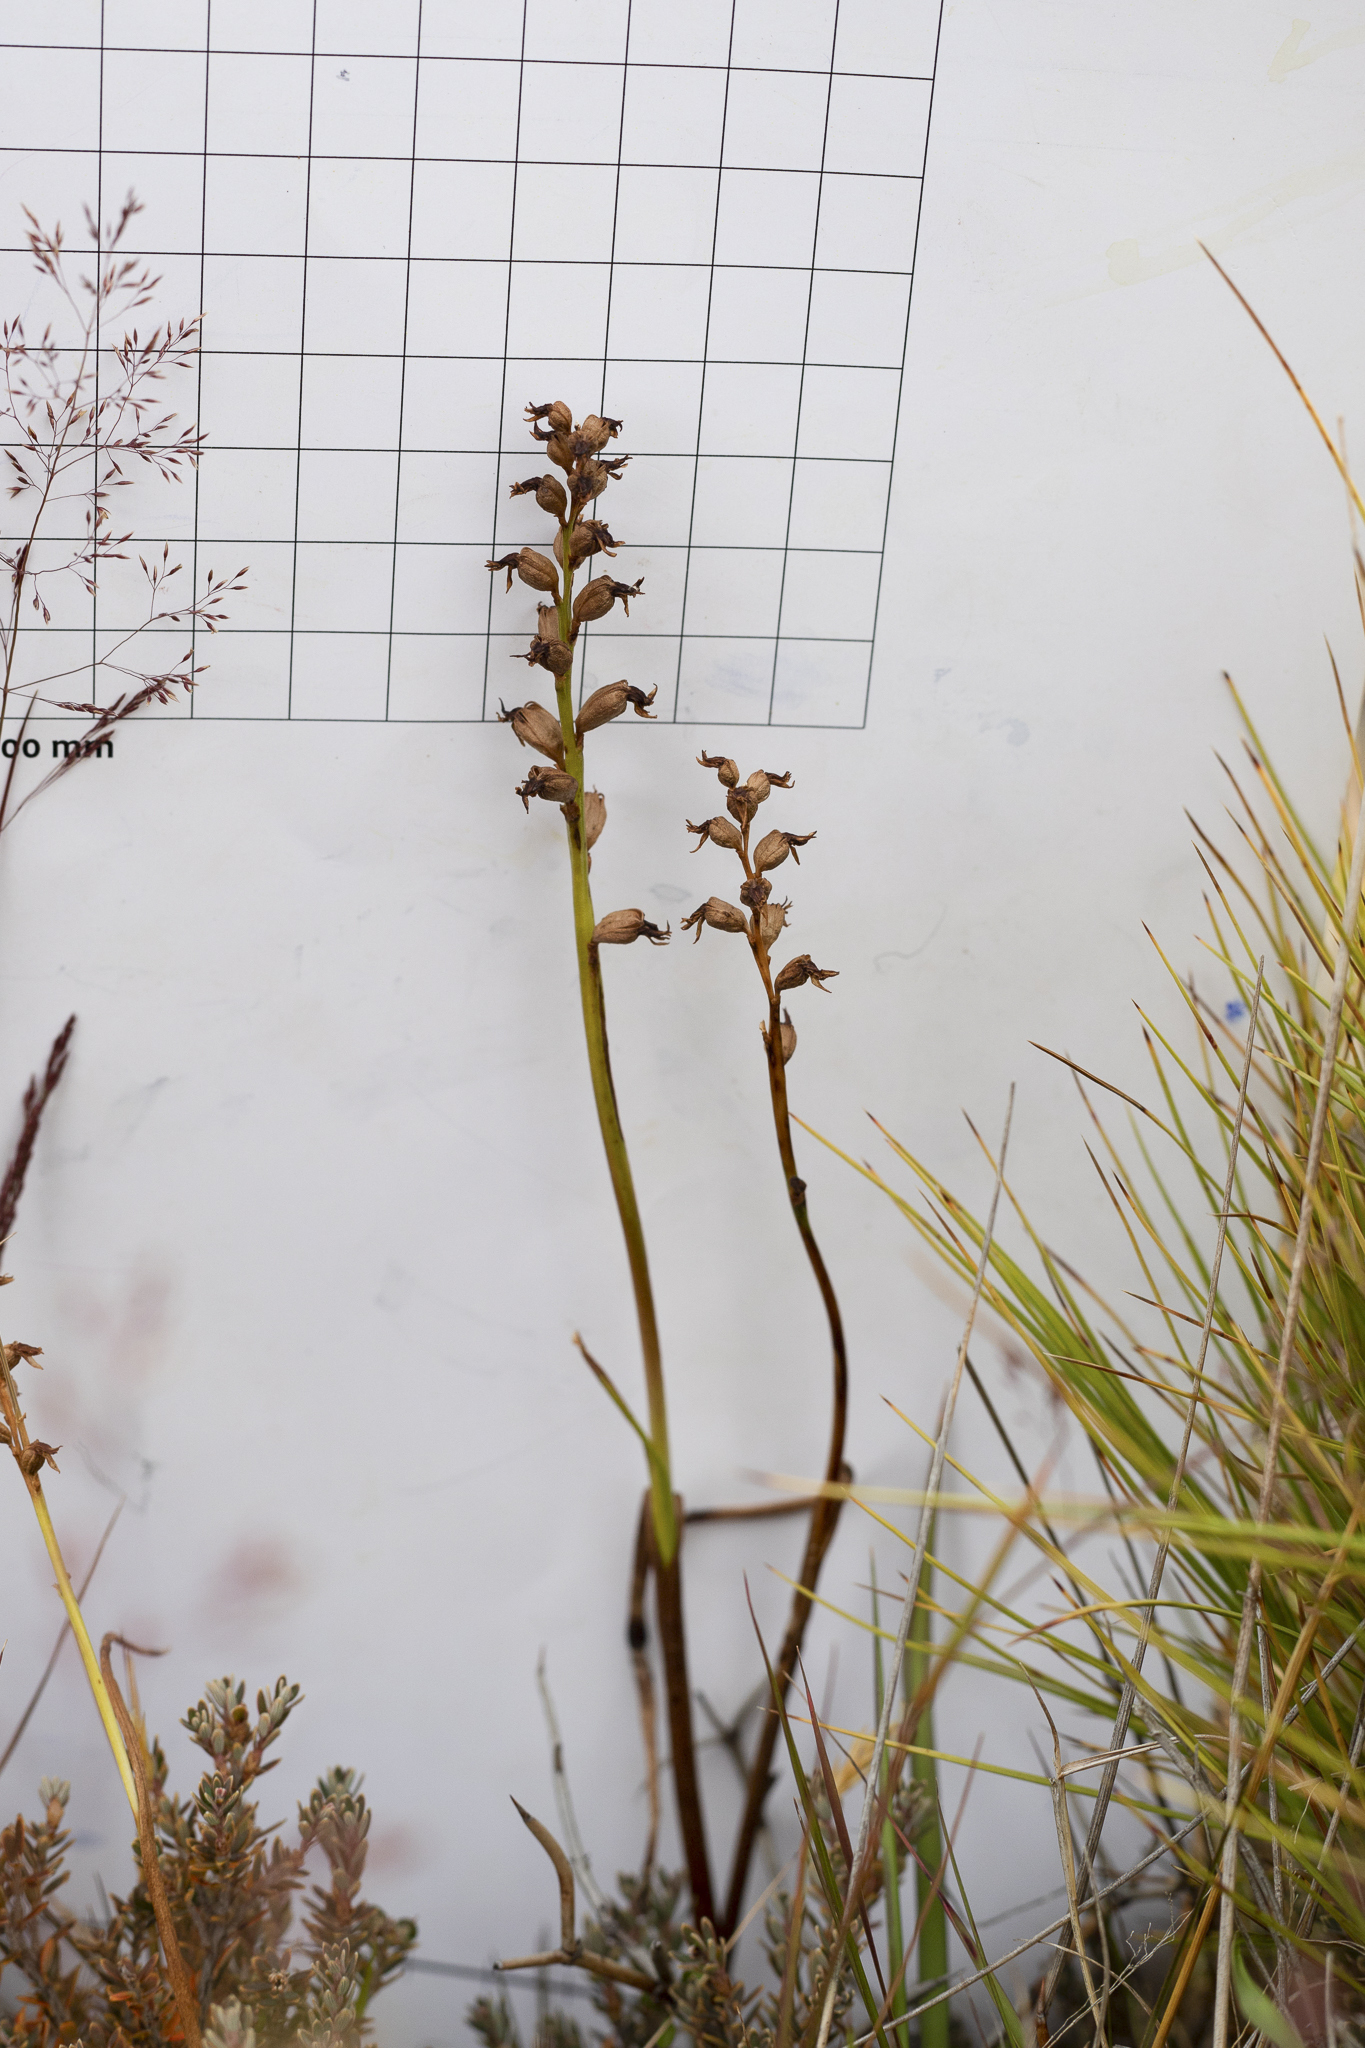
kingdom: Plantae
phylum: Tracheophyta
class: Liliopsida
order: Asparagales
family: Orchidaceae
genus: Prasophyllum
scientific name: Prasophyllum colensoi
